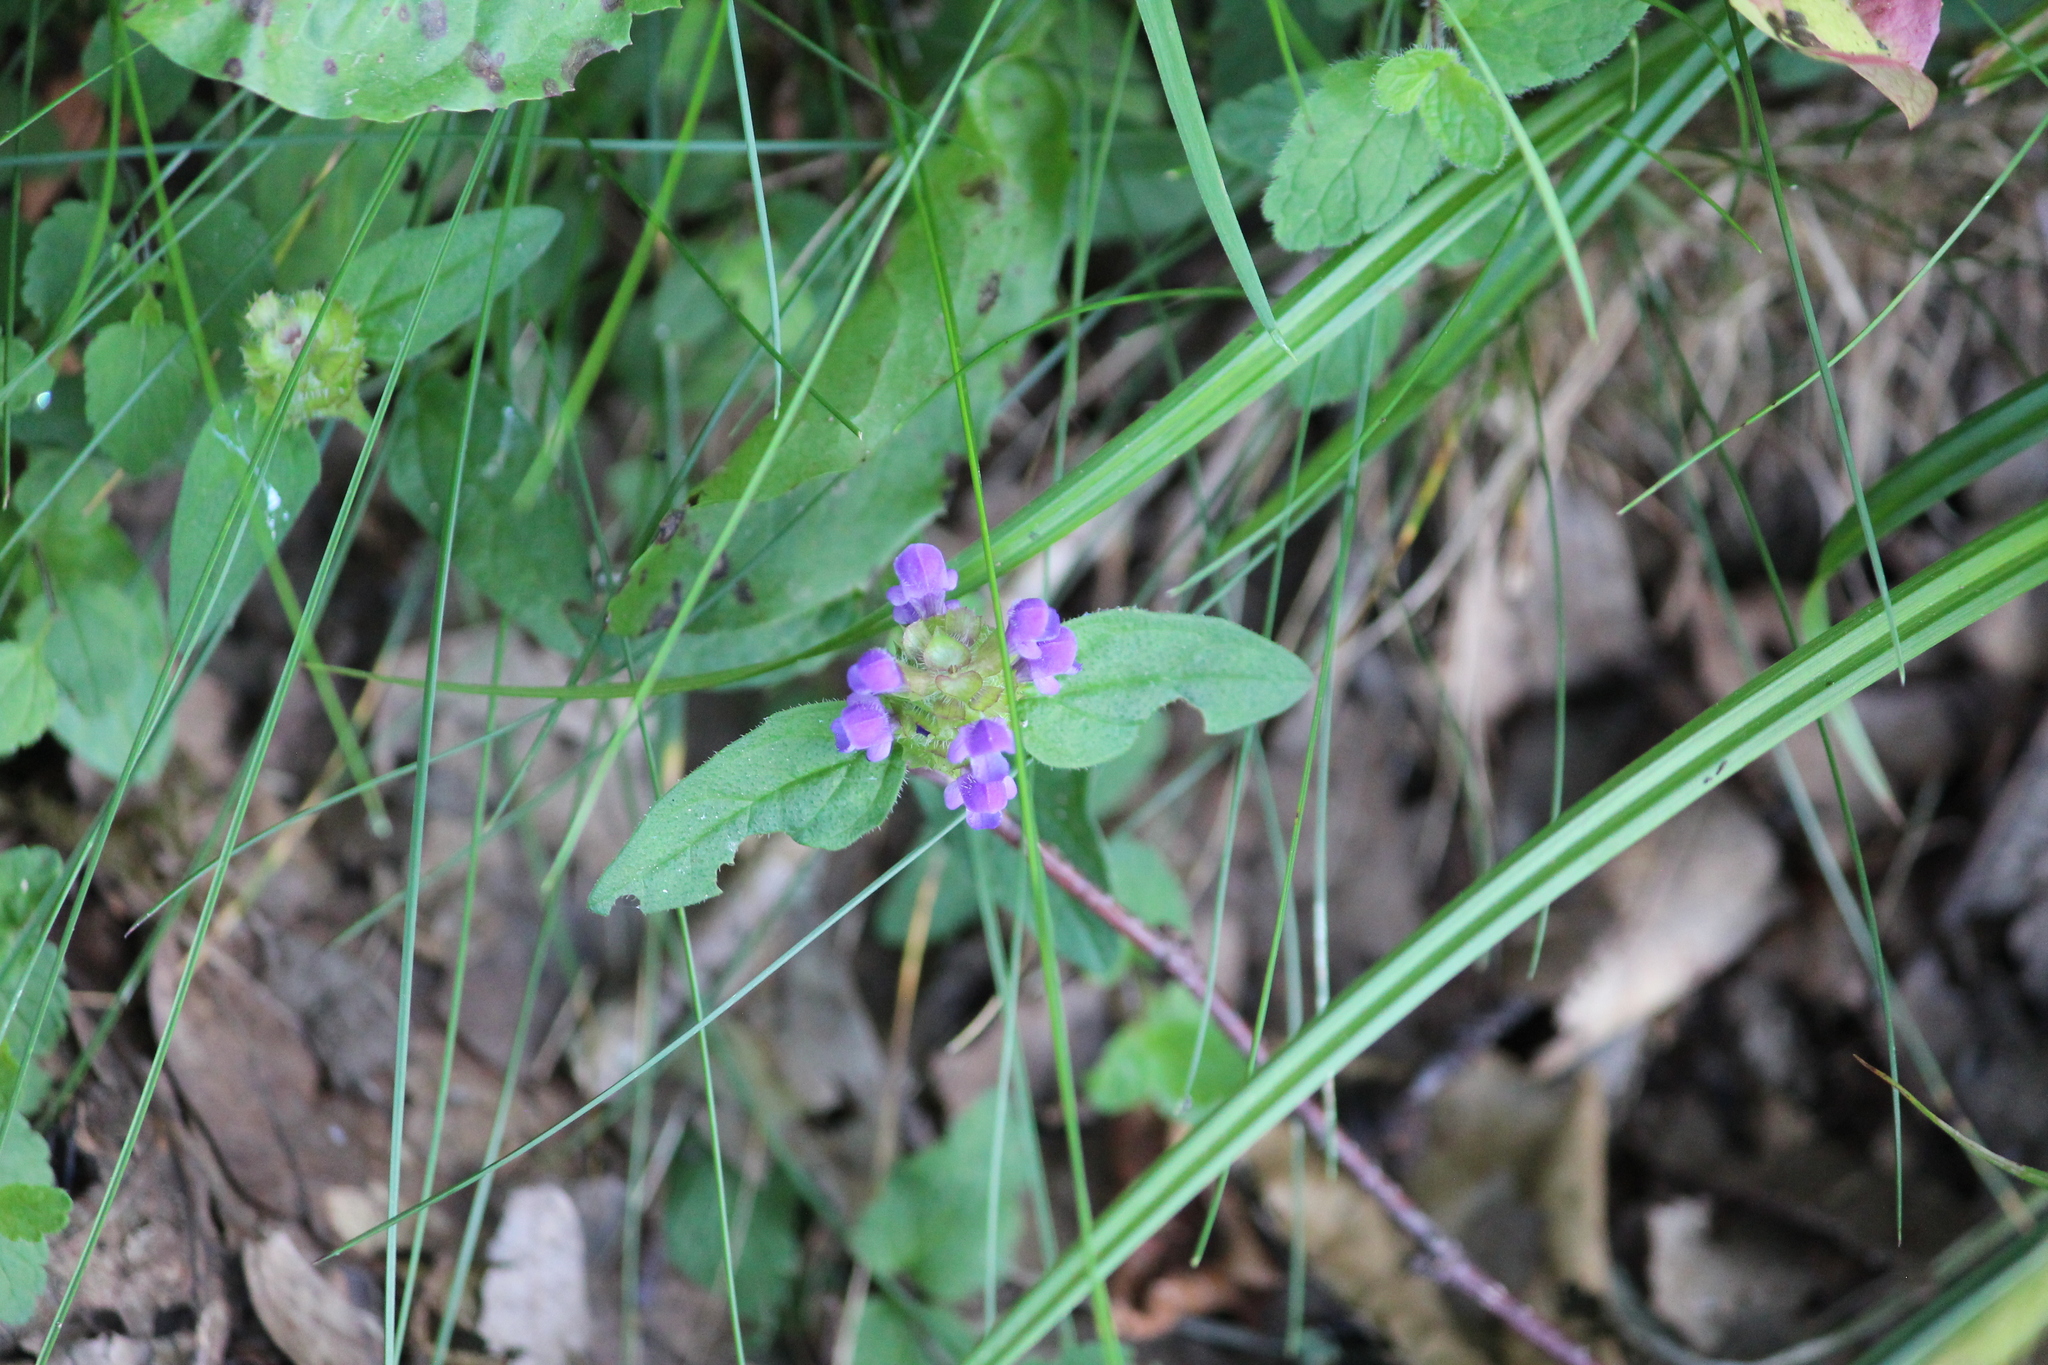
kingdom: Plantae
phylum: Tracheophyta
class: Magnoliopsida
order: Lamiales
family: Lamiaceae
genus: Prunella
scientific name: Prunella vulgaris
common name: Heal-all
